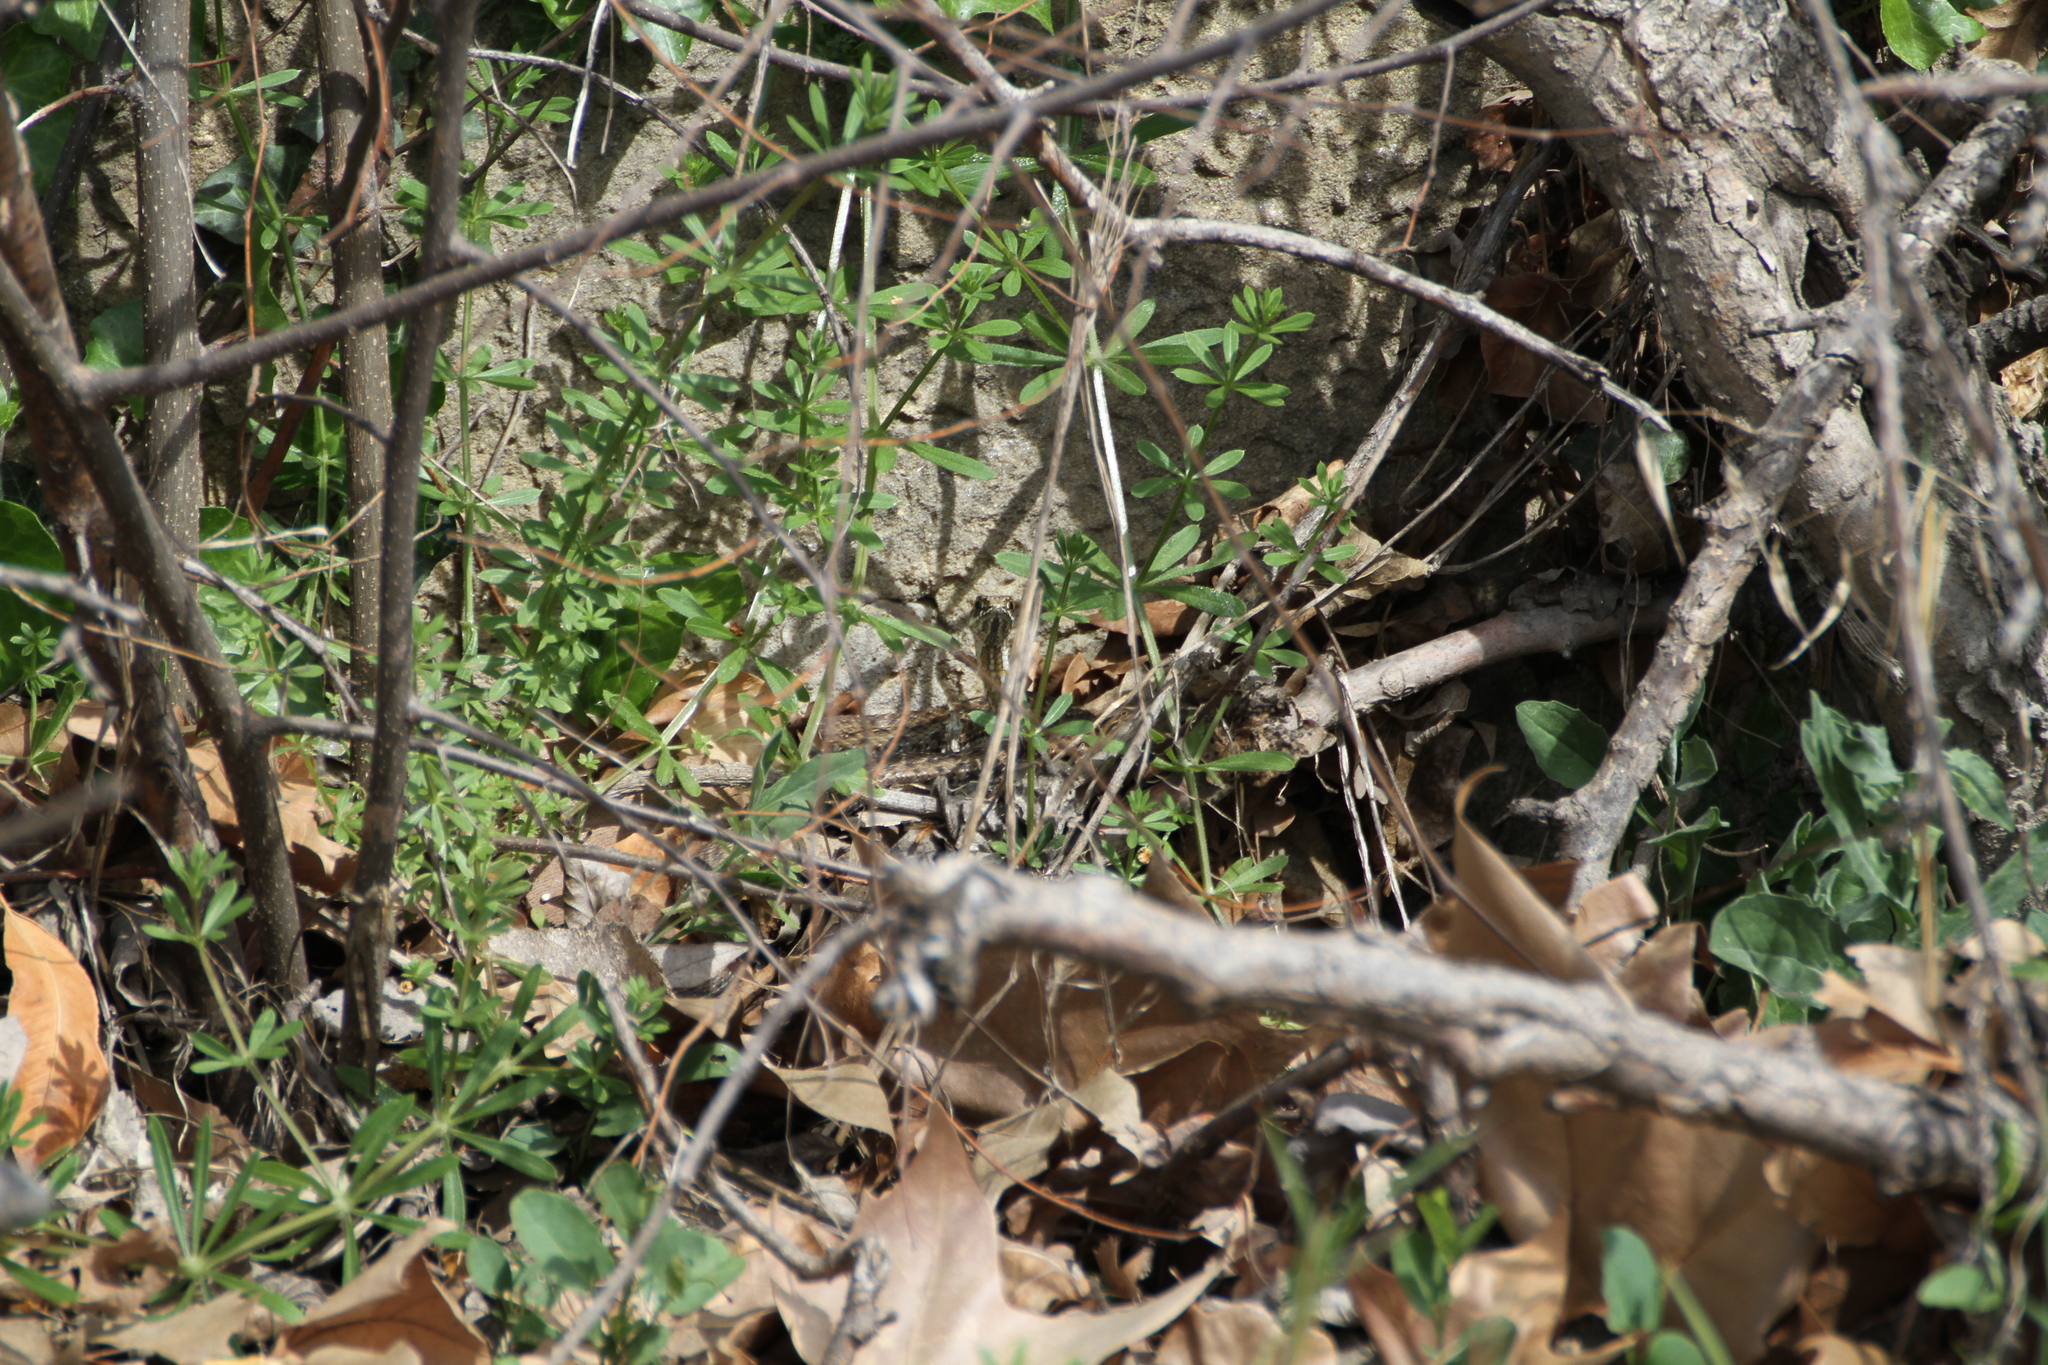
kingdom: Animalia
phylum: Chordata
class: Squamata
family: Psammophiidae
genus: Malpolon
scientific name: Malpolon monspessulanus
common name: Montpellier snake
